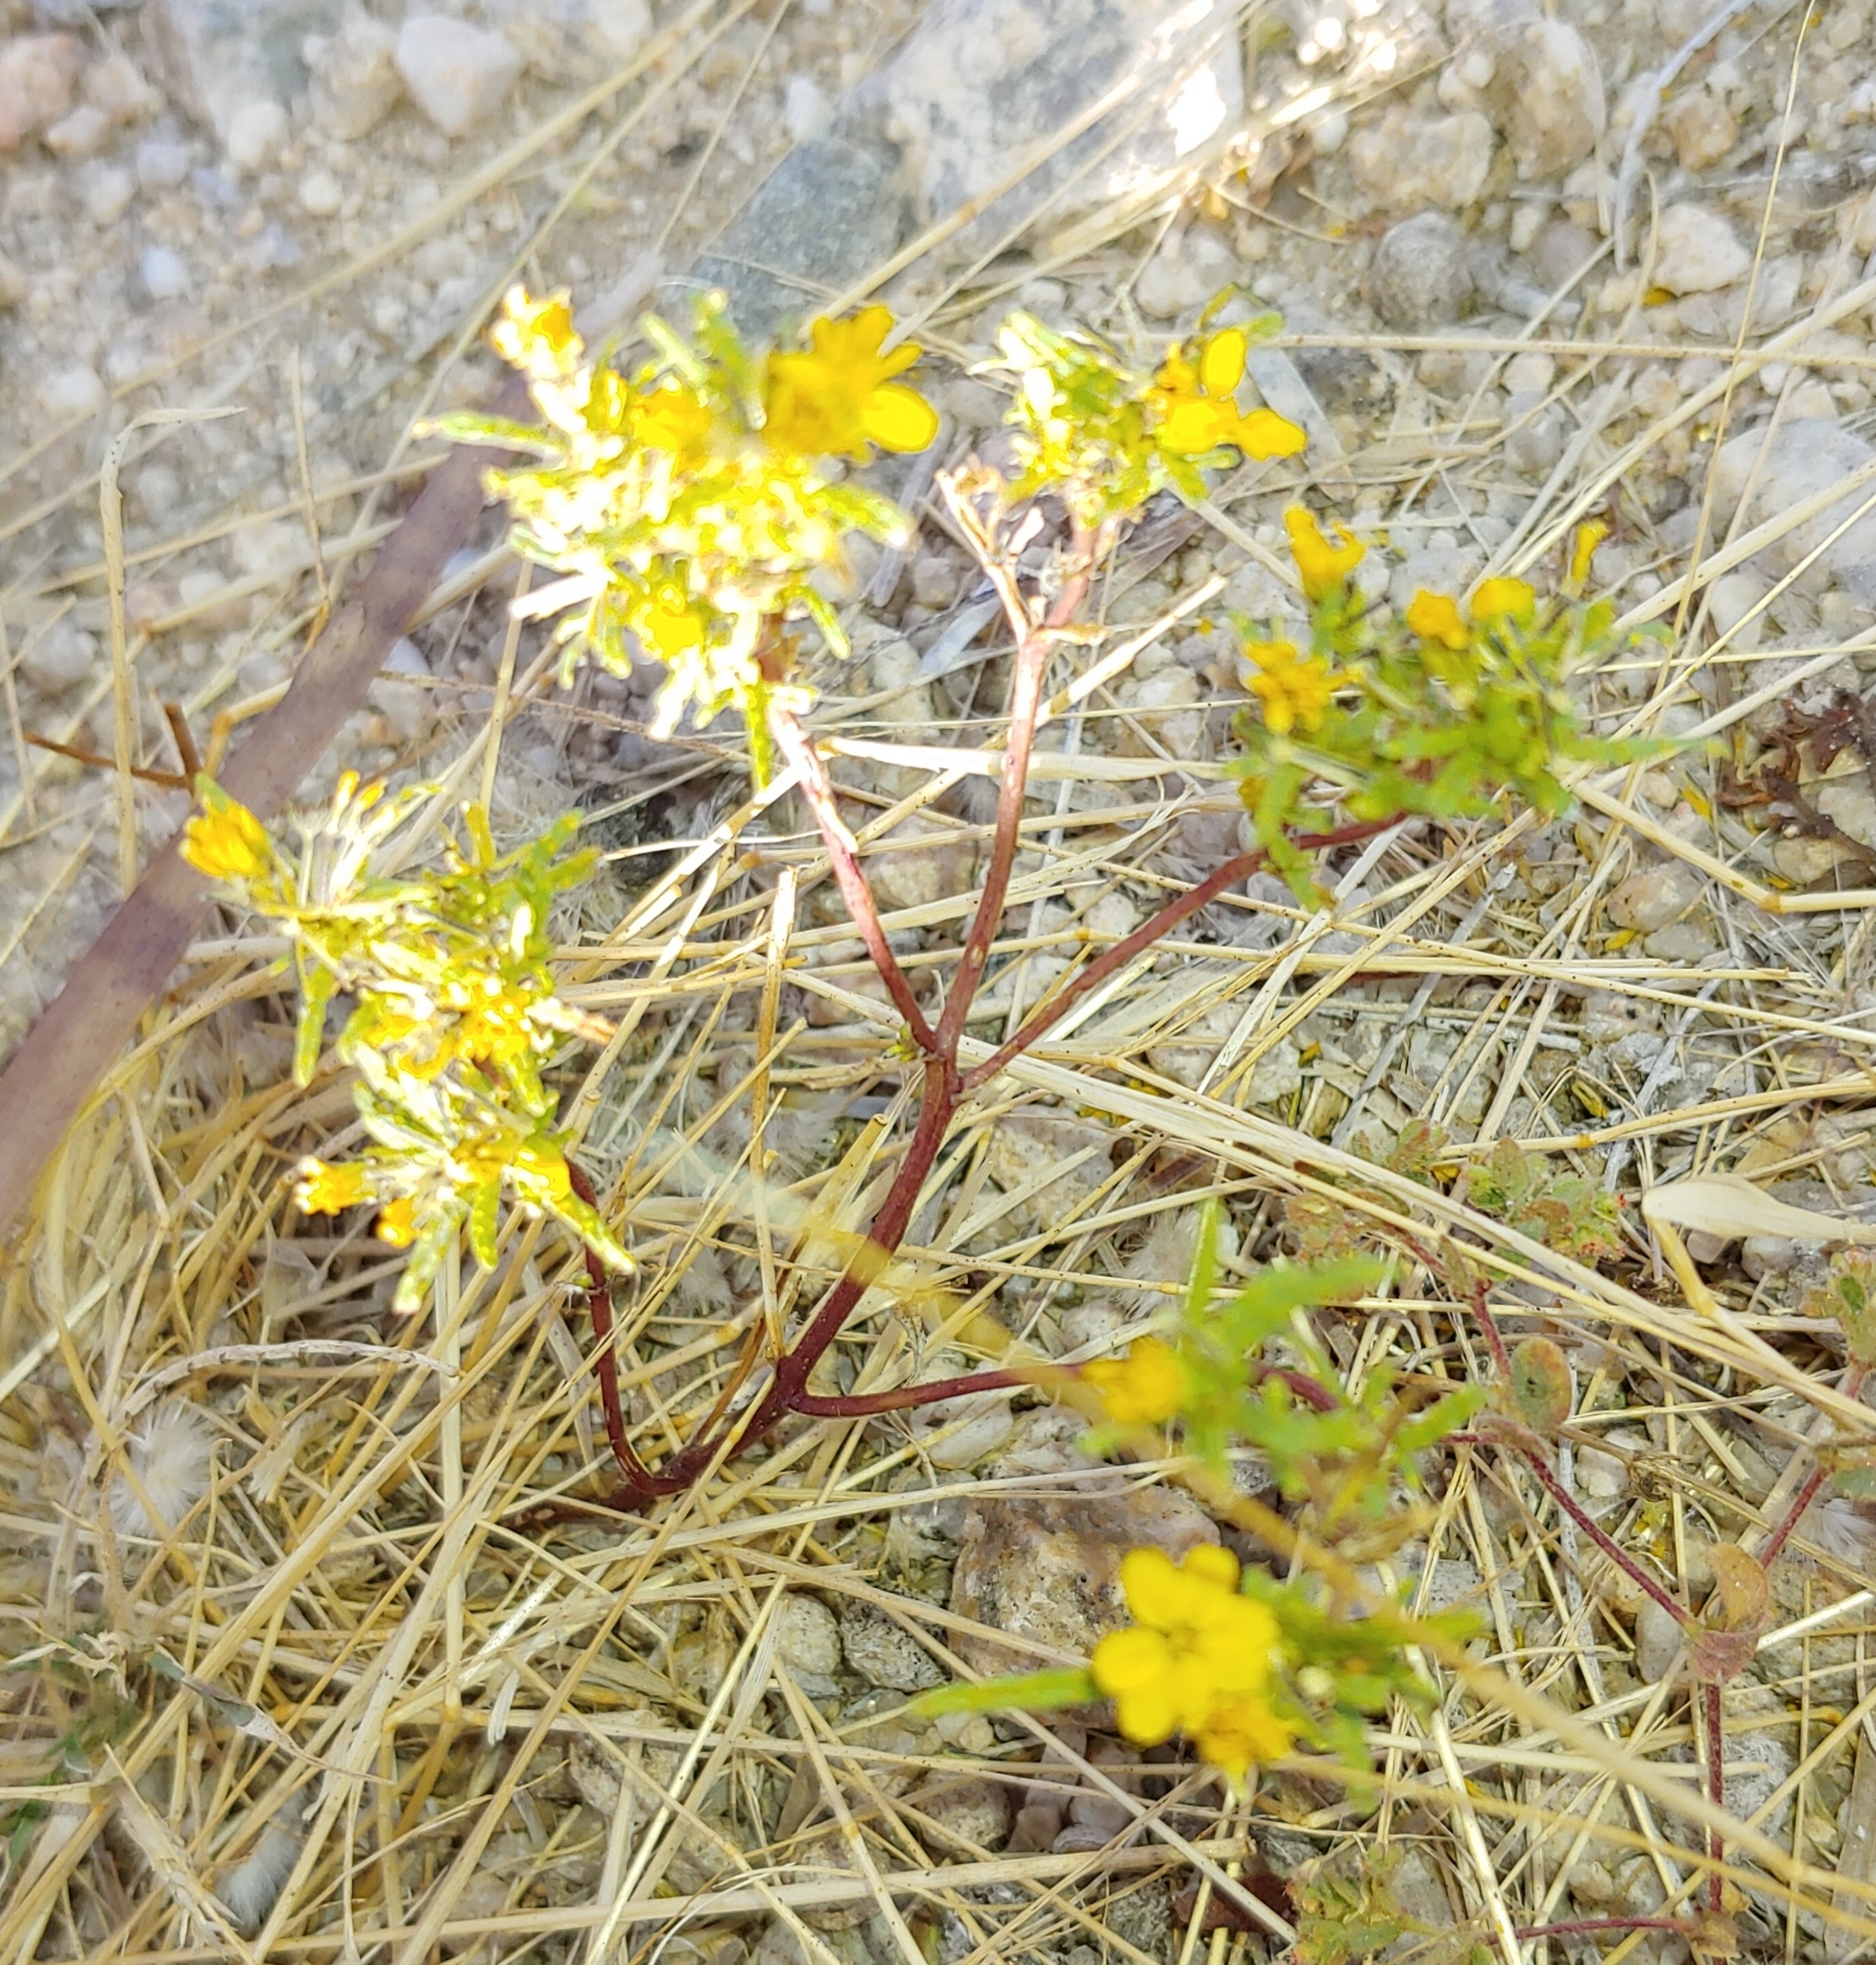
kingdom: Plantae
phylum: Tracheophyta
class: Magnoliopsida
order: Asterales
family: Asteraceae
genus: Pectis
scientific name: Pectis papposa
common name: Many-bristle chinchweed
